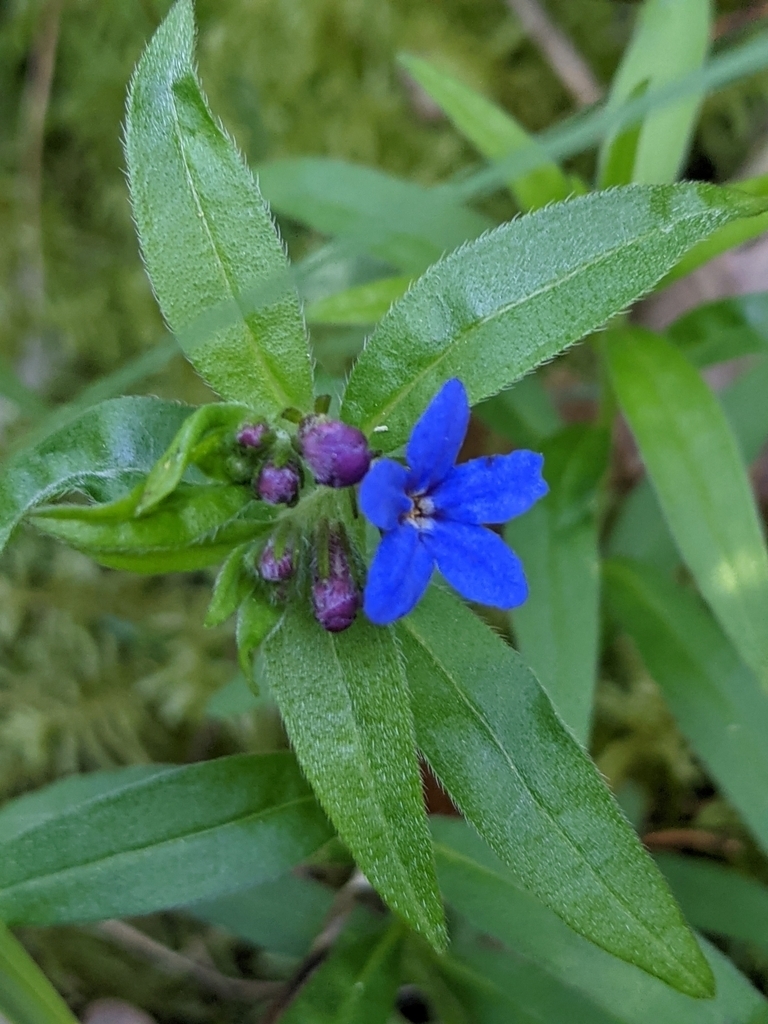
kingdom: Plantae
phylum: Tracheophyta
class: Magnoliopsida
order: Boraginales
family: Boraginaceae
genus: Aegonychon
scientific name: Aegonychon purpurocaeruleum
